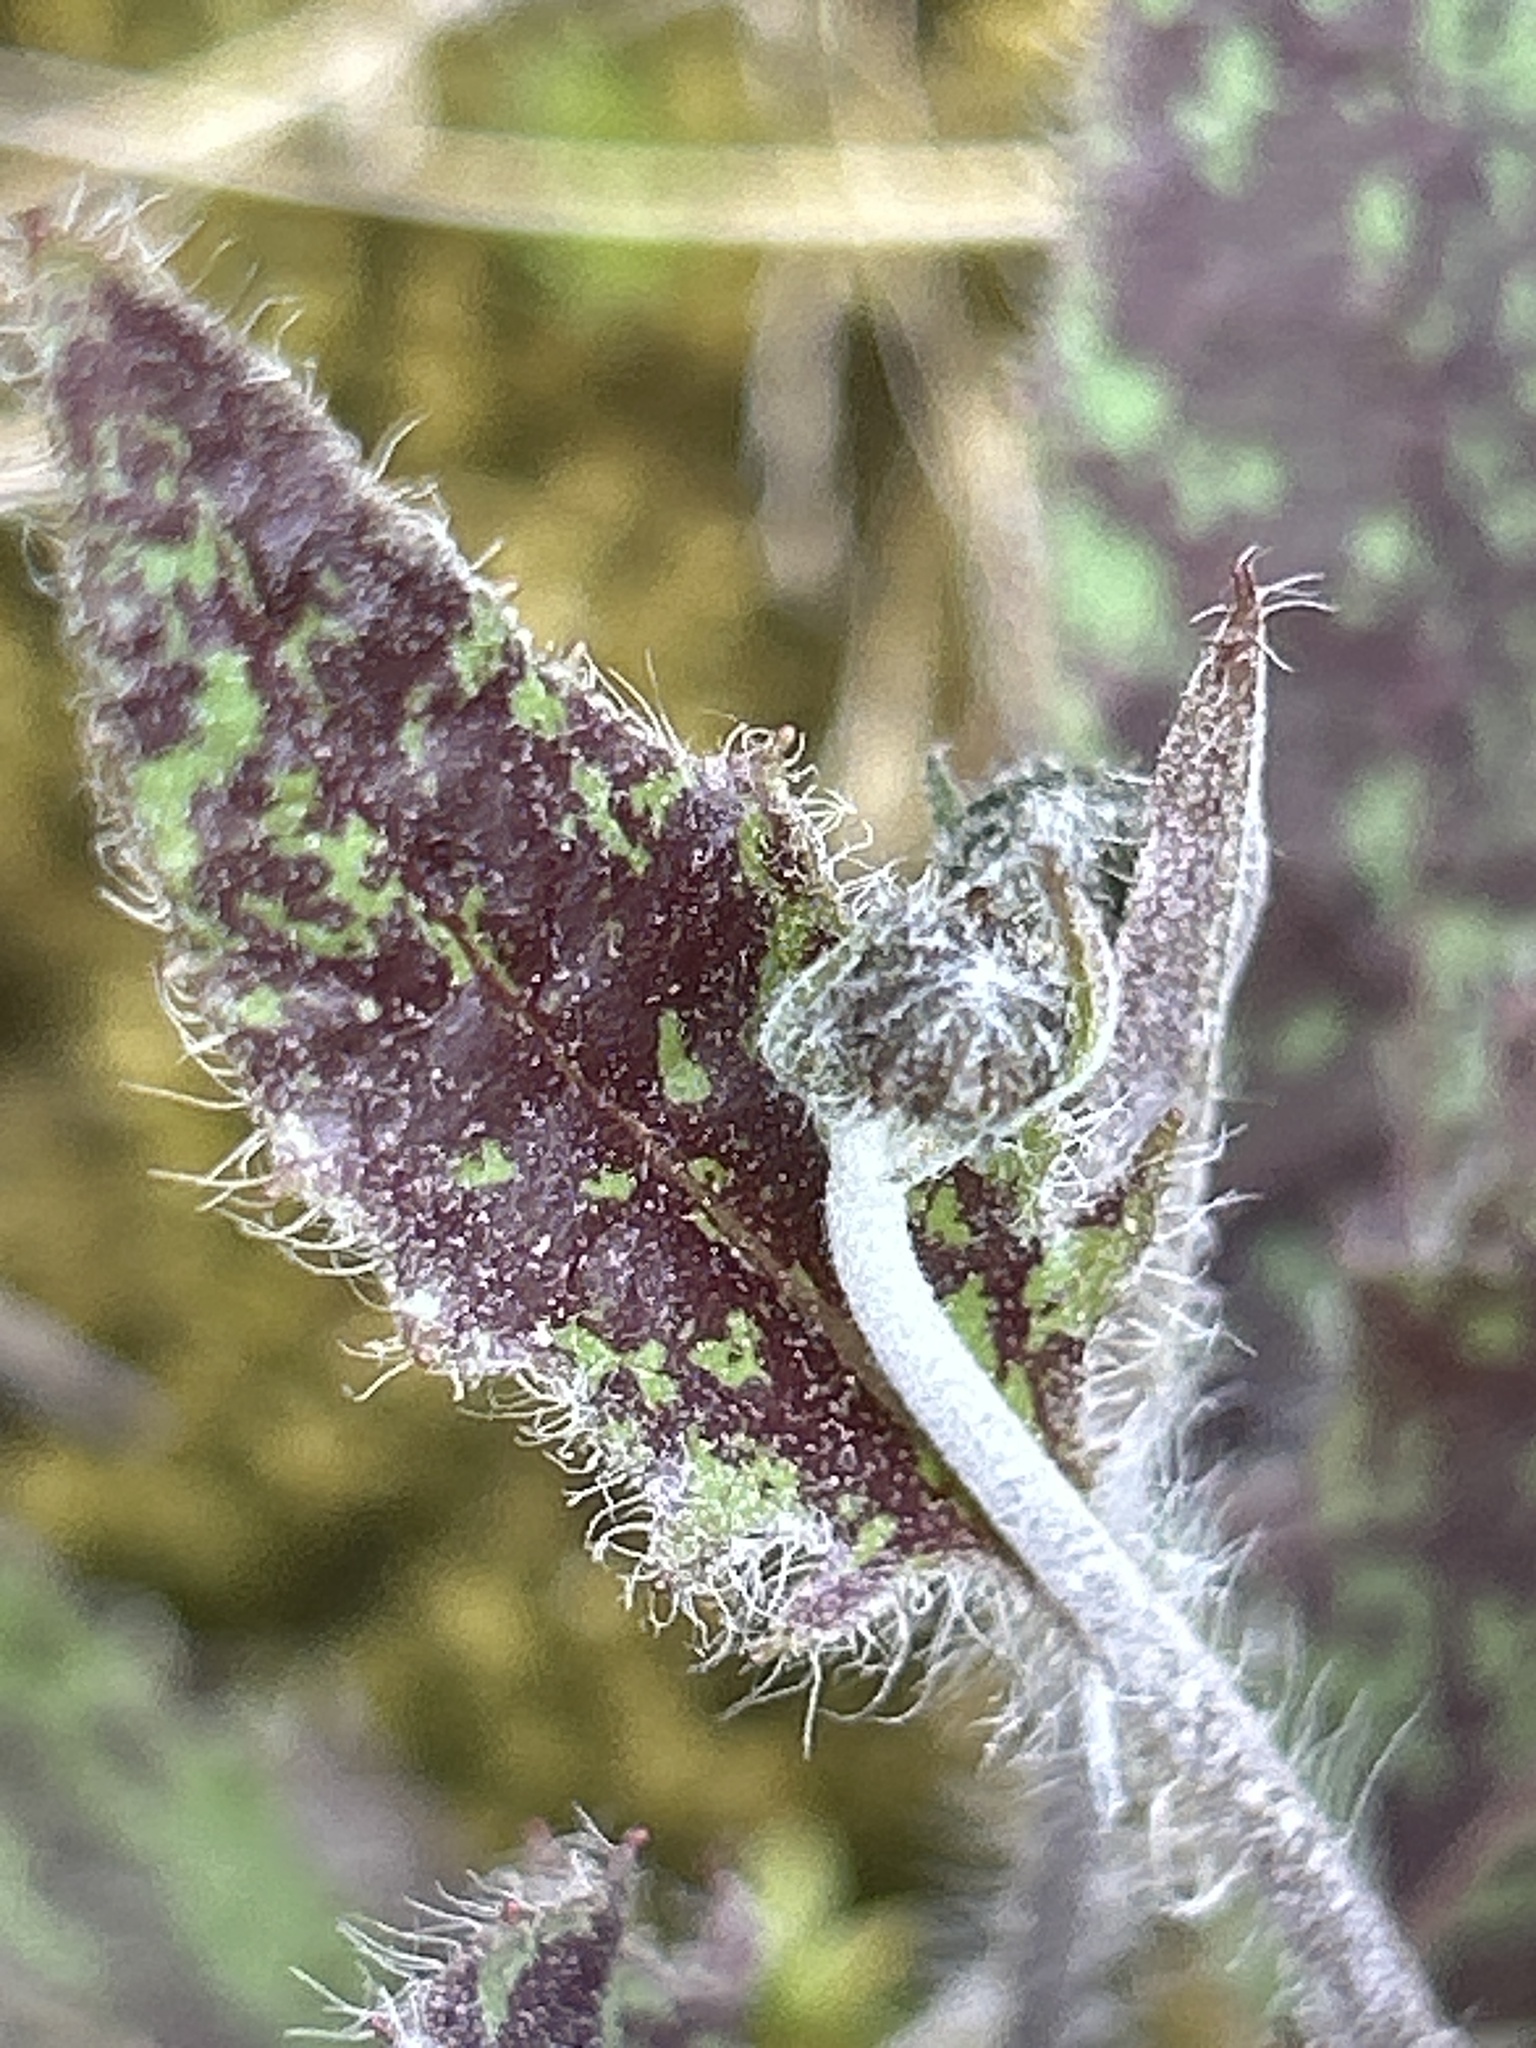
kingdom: Plantae
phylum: Tracheophyta
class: Magnoliopsida
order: Asterales
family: Asteraceae
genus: Hieracium
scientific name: Hieracium maculatum
